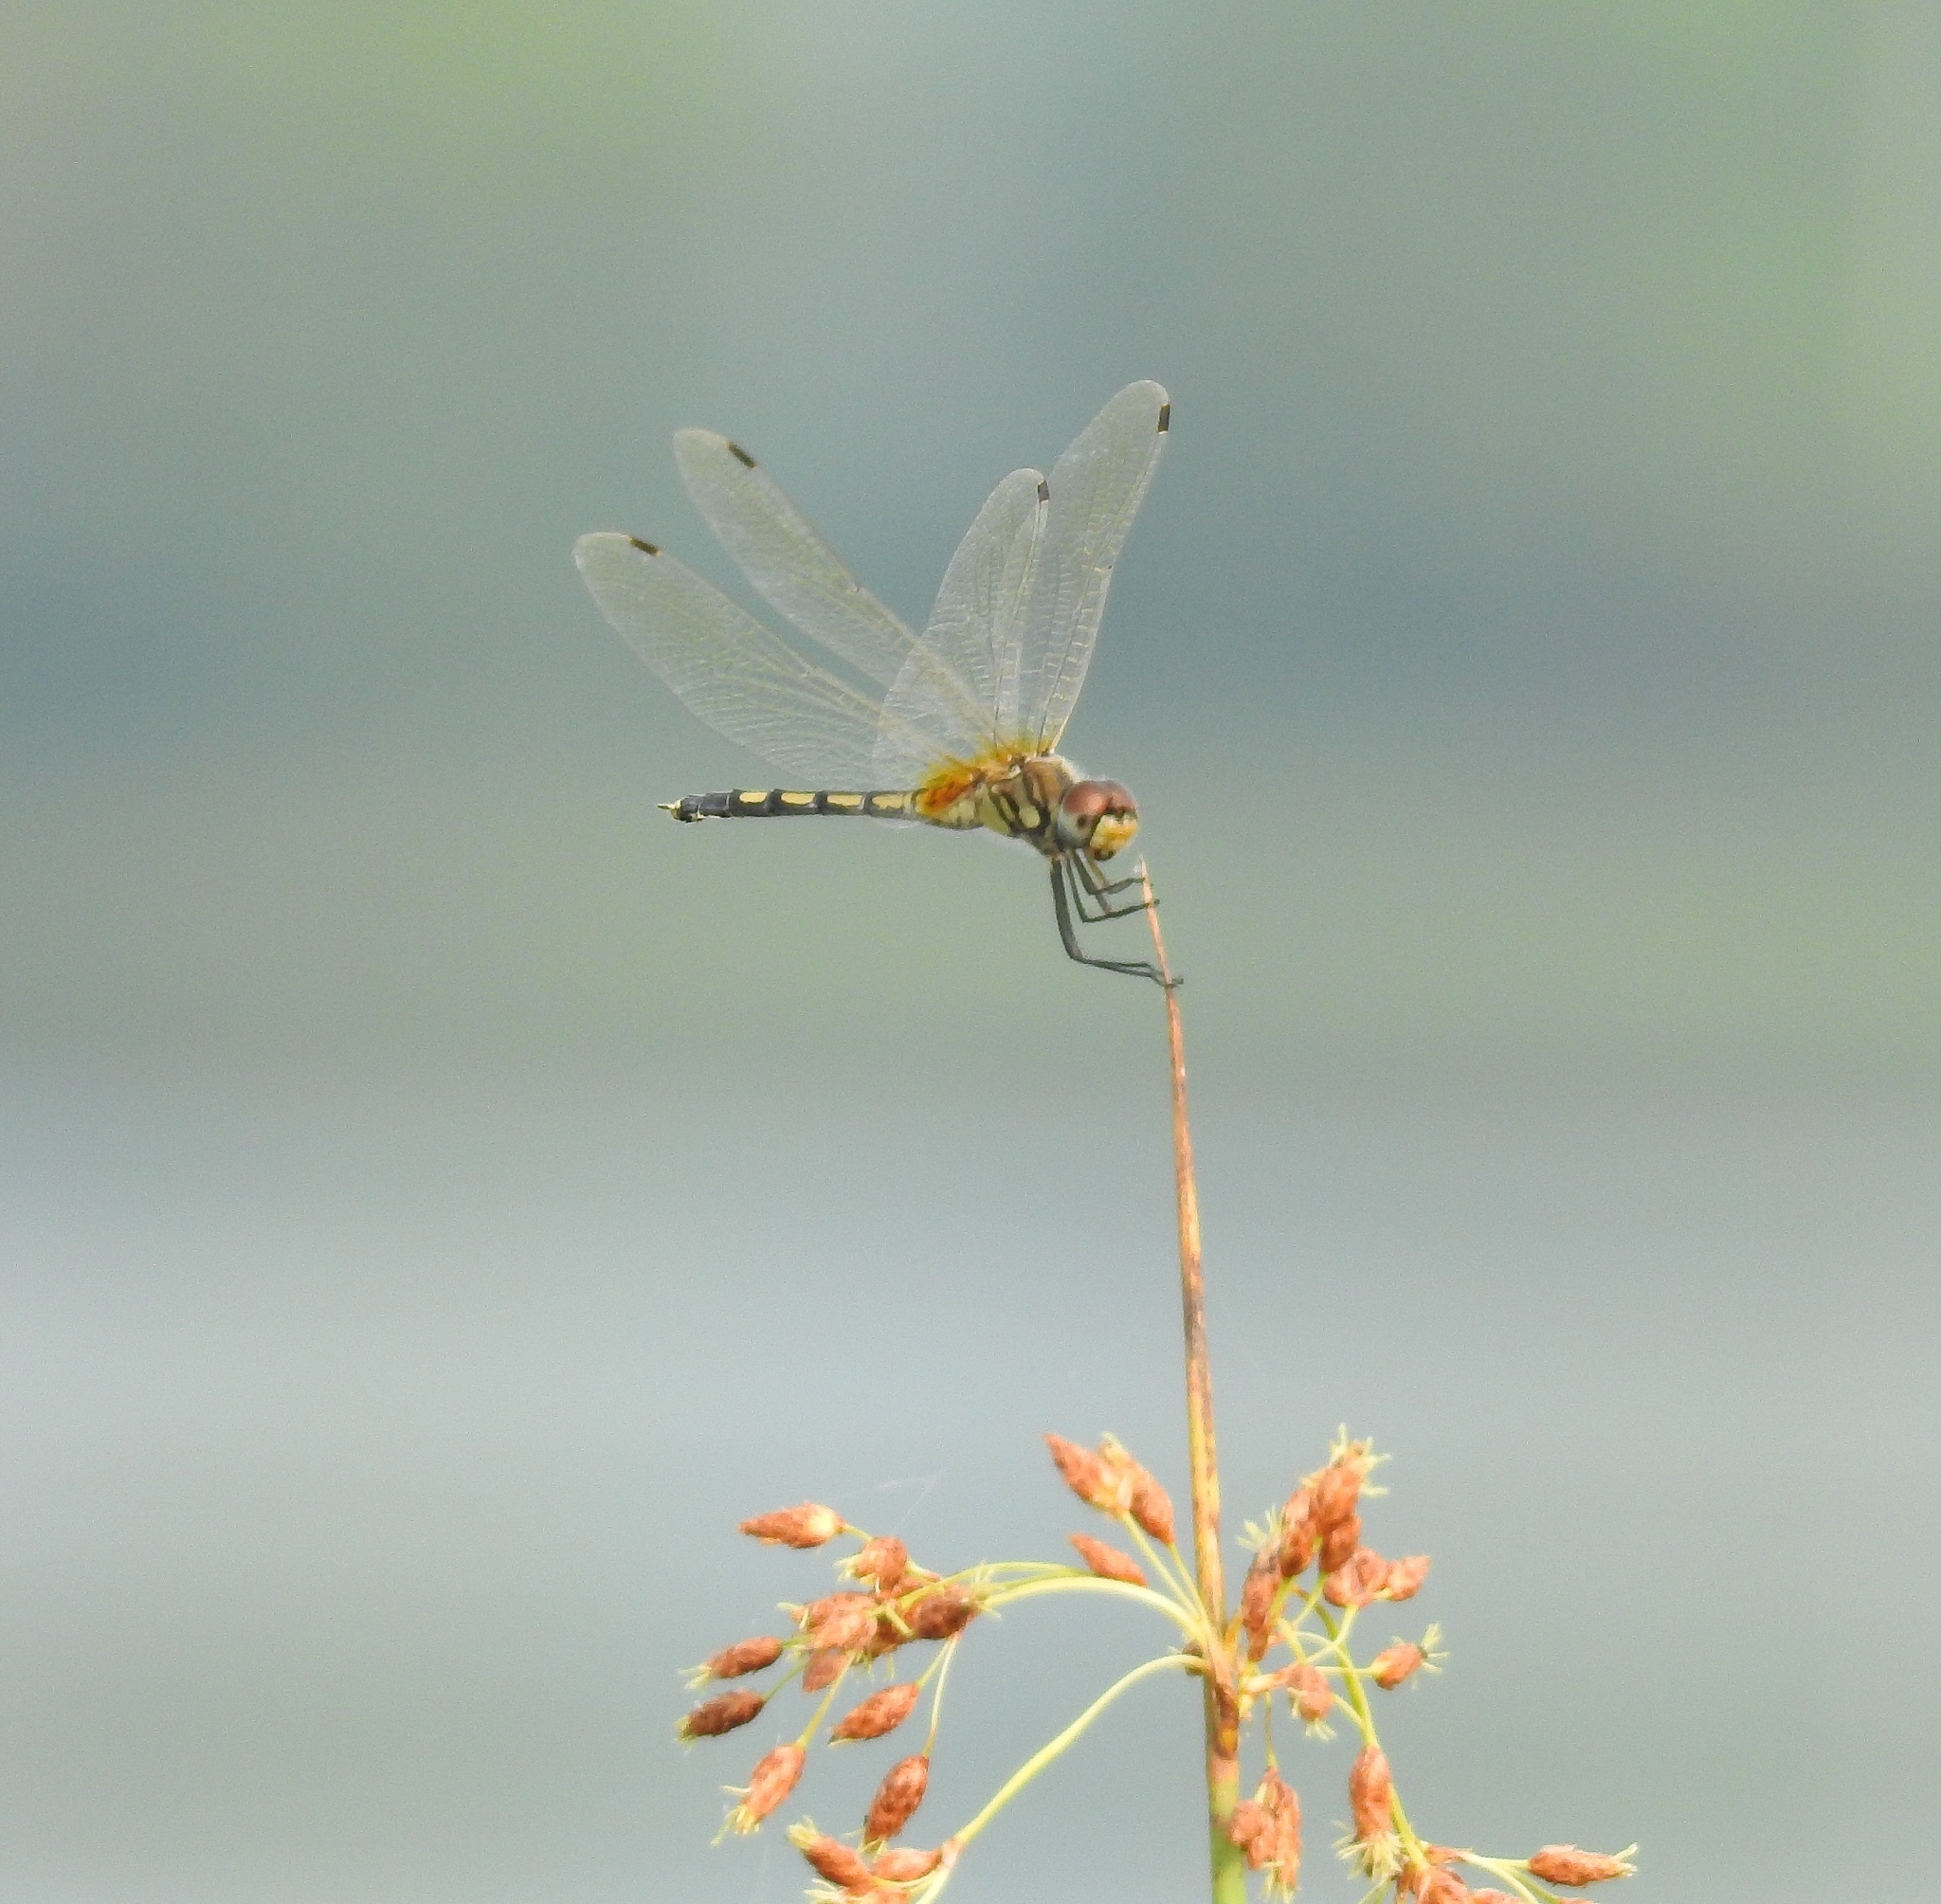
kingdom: Animalia
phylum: Arthropoda
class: Insecta
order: Odonata
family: Libellulidae
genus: Trithemis
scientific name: Trithemis pallidinervis
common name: Dancing dropwing
